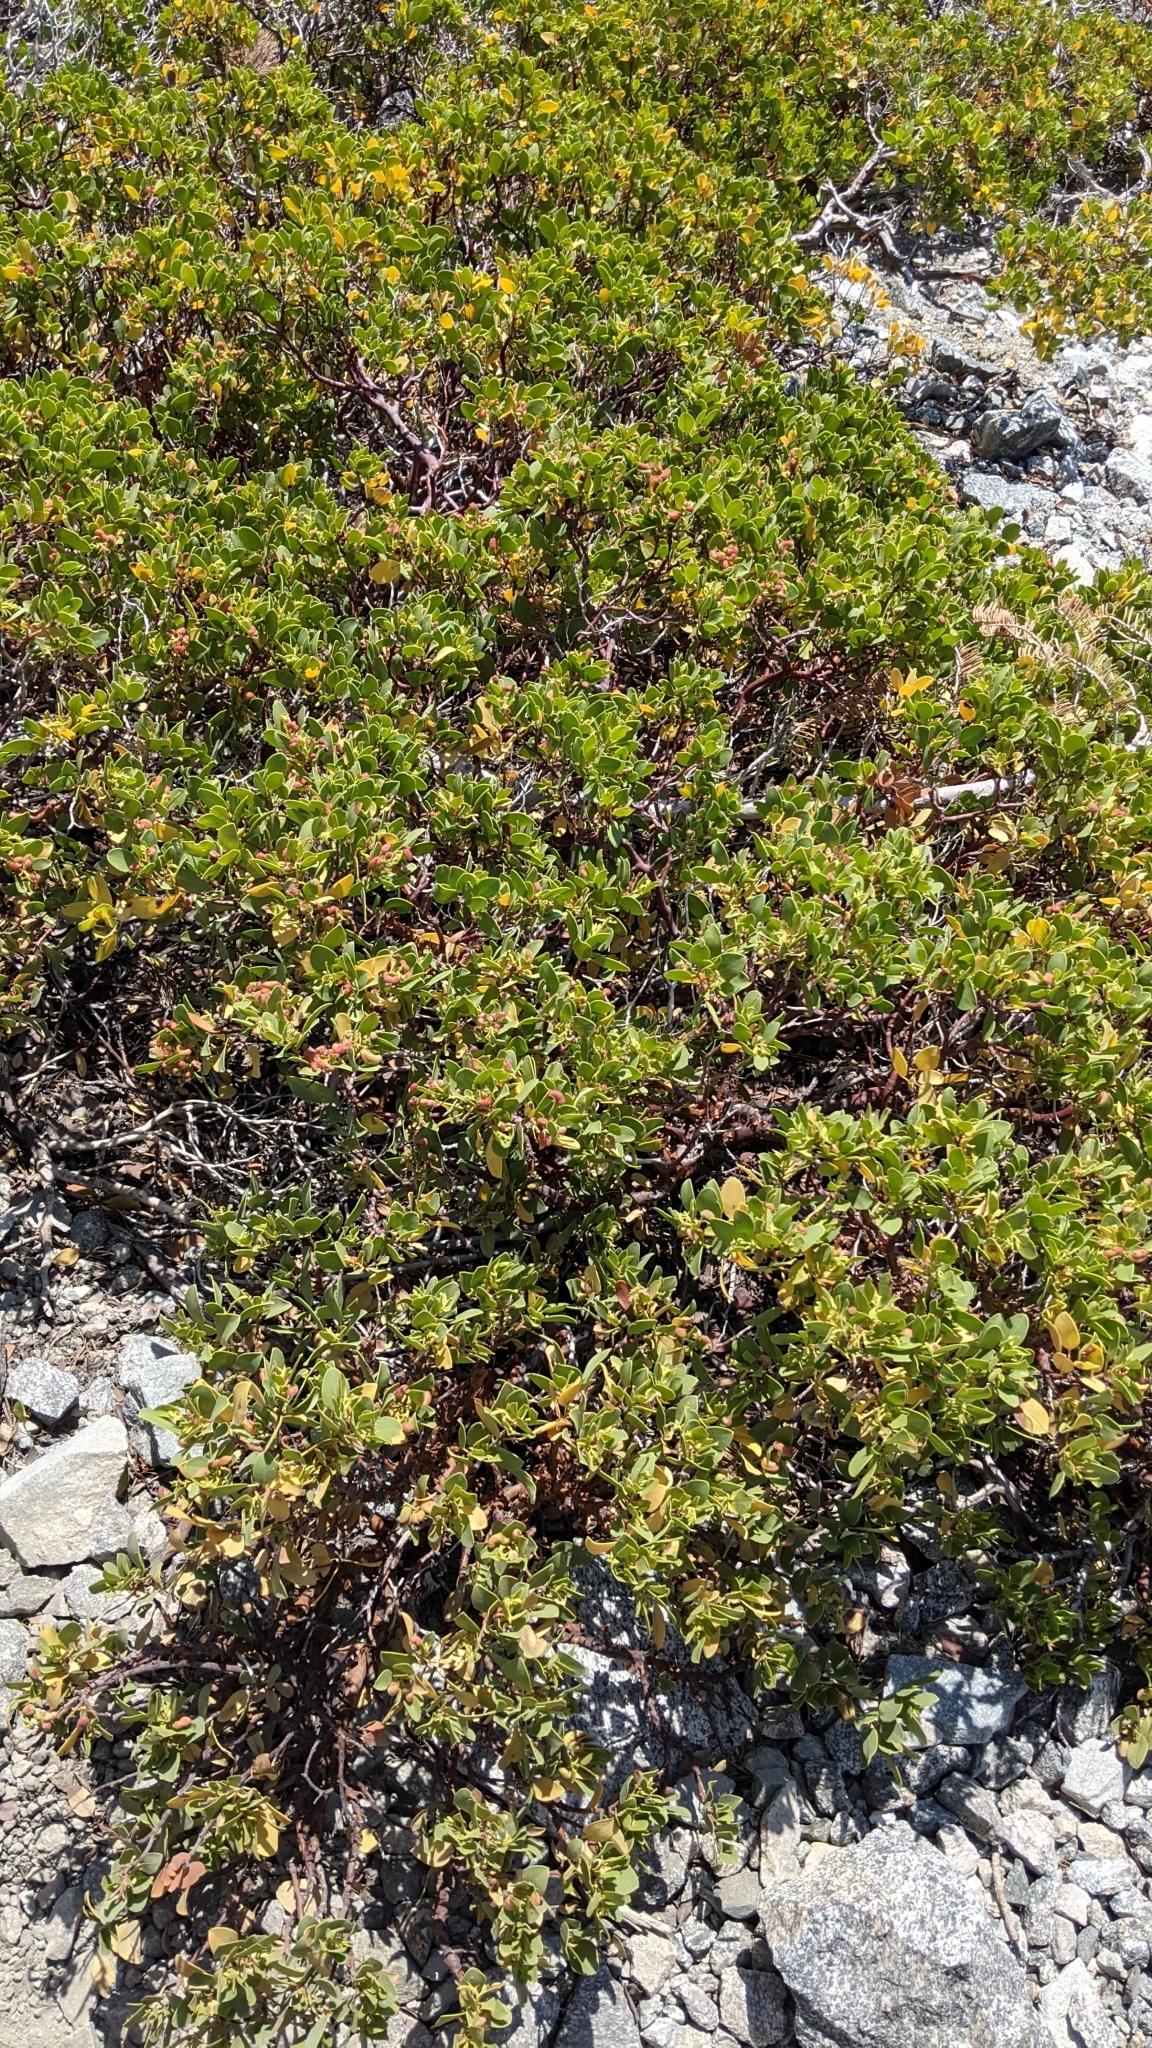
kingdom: Animalia
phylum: Arthropoda
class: Insecta
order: Hemiptera
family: Aphididae
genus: Tamalia
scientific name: Tamalia coweni
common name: Manzanita leafgall aphid
